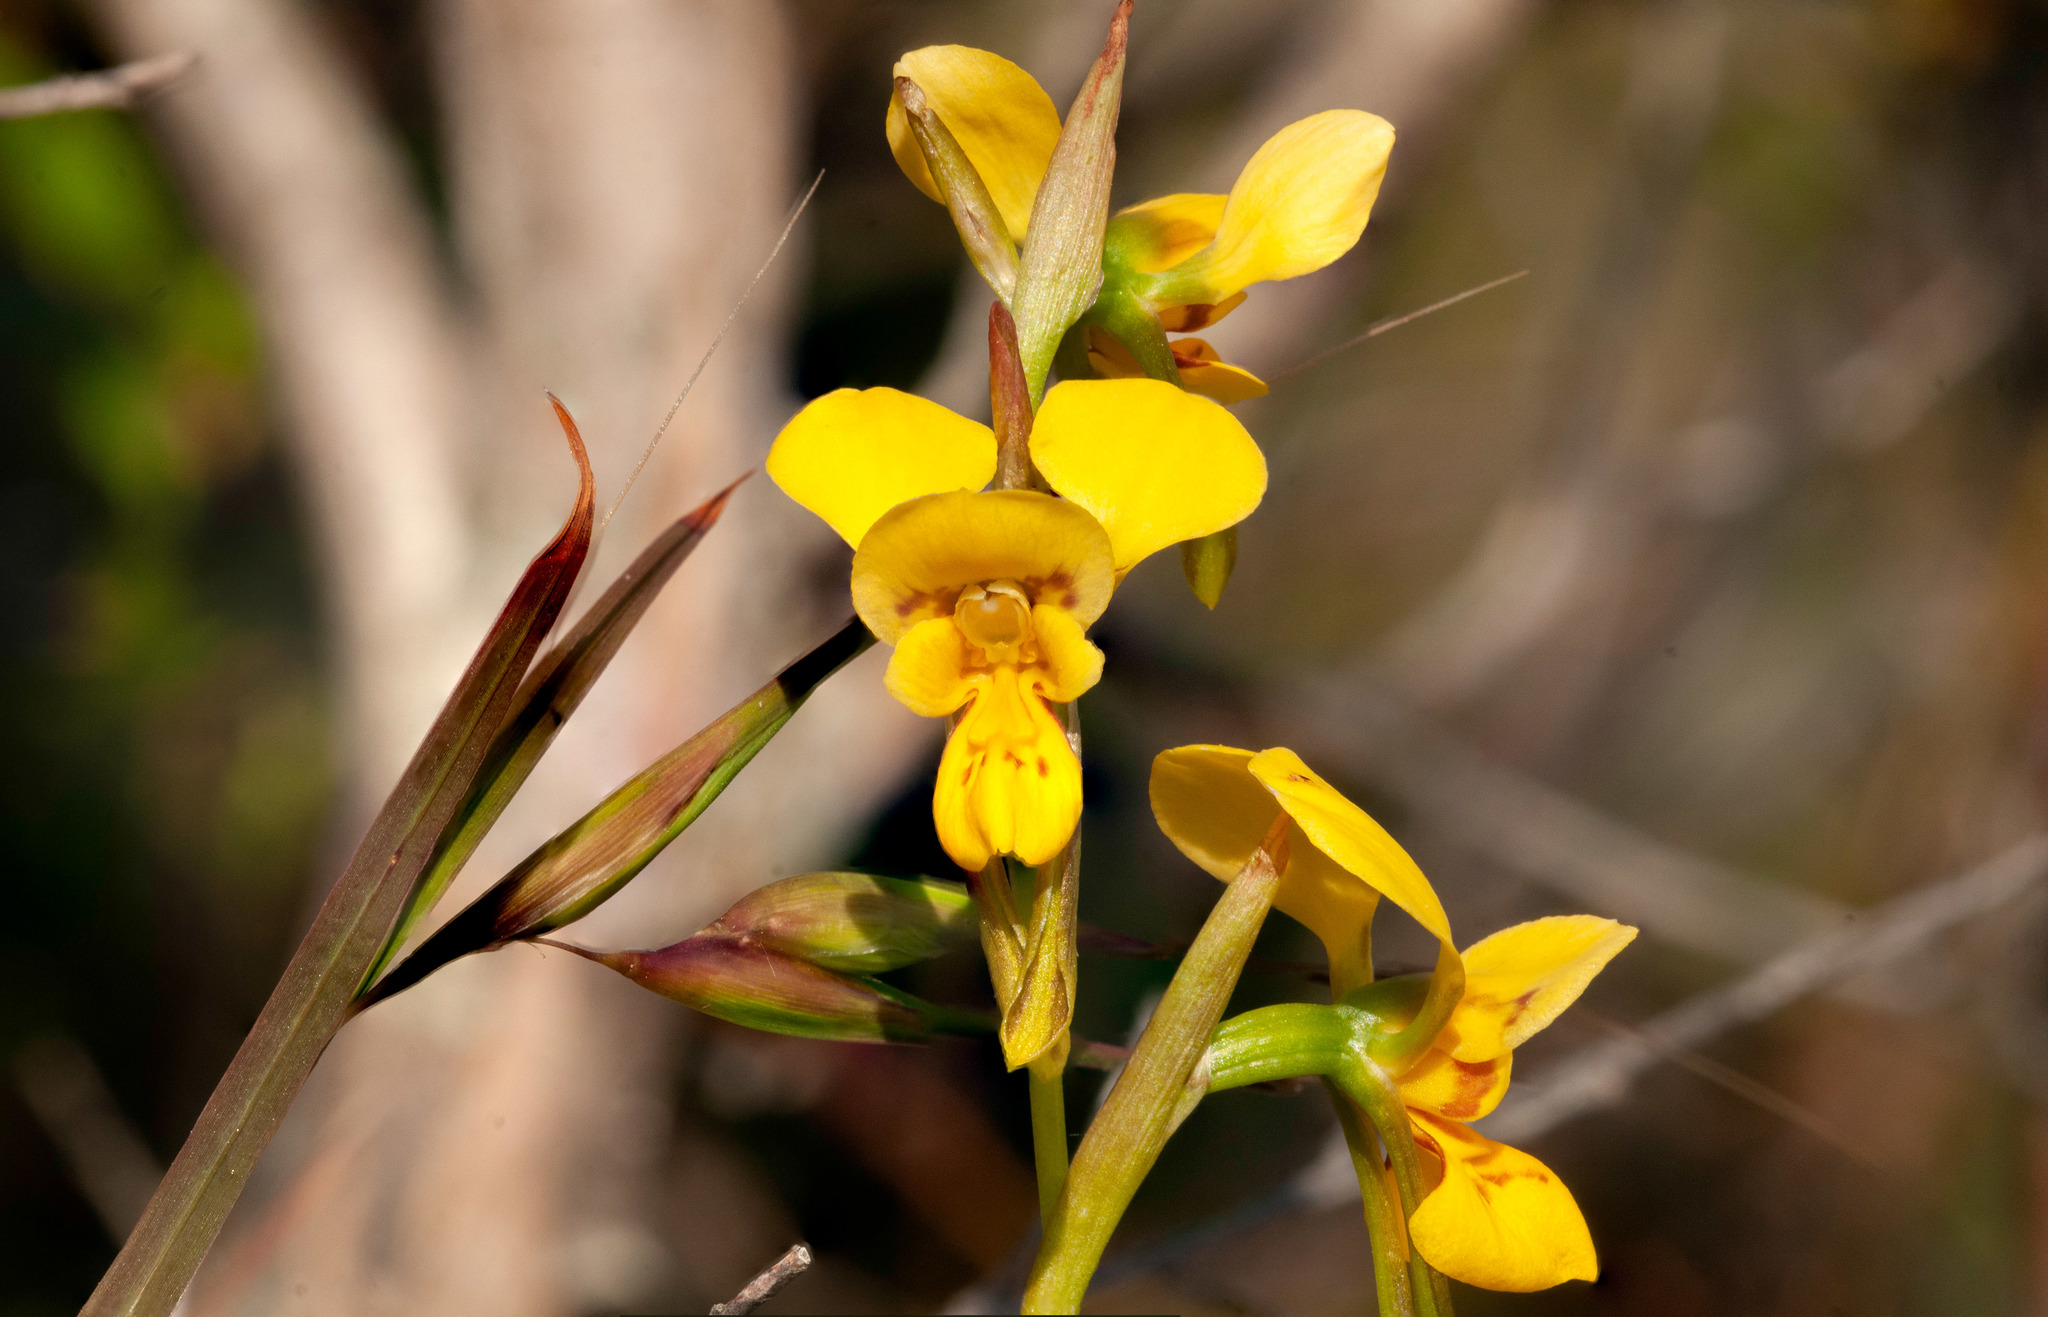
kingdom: Plantae
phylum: Tracheophyta
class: Liliopsida
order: Asparagales
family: Orchidaceae
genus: Diuris
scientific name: Diuris aurea
